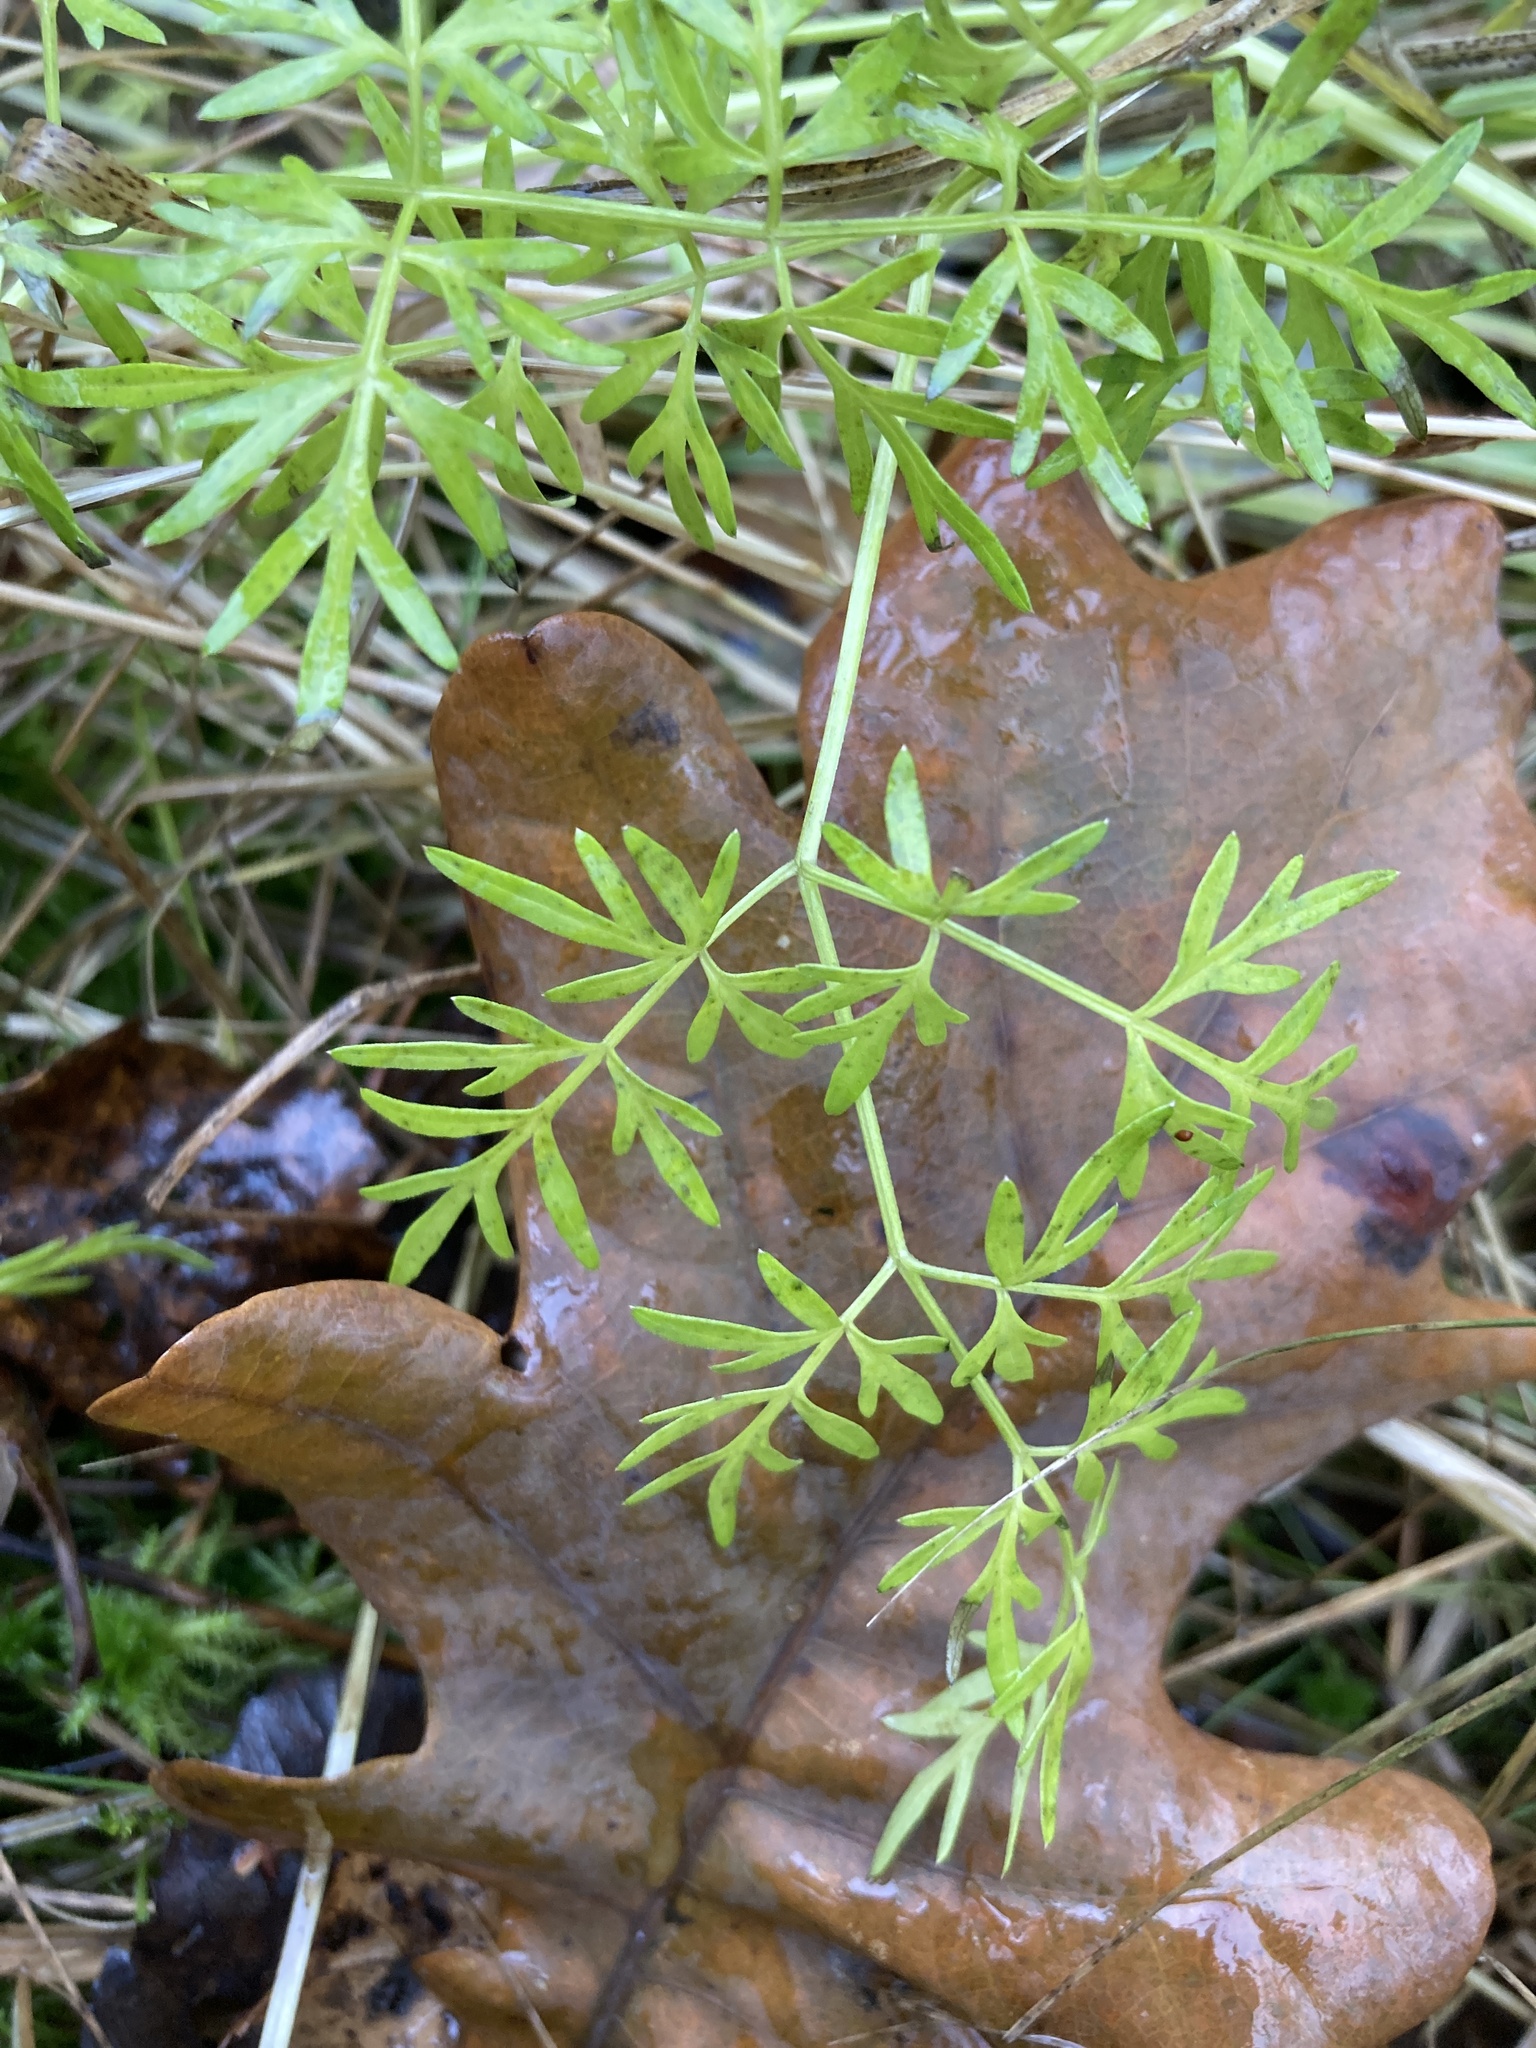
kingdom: Plantae
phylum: Tracheophyta
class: Magnoliopsida
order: Apiales
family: Apiaceae
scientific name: Apiaceae
